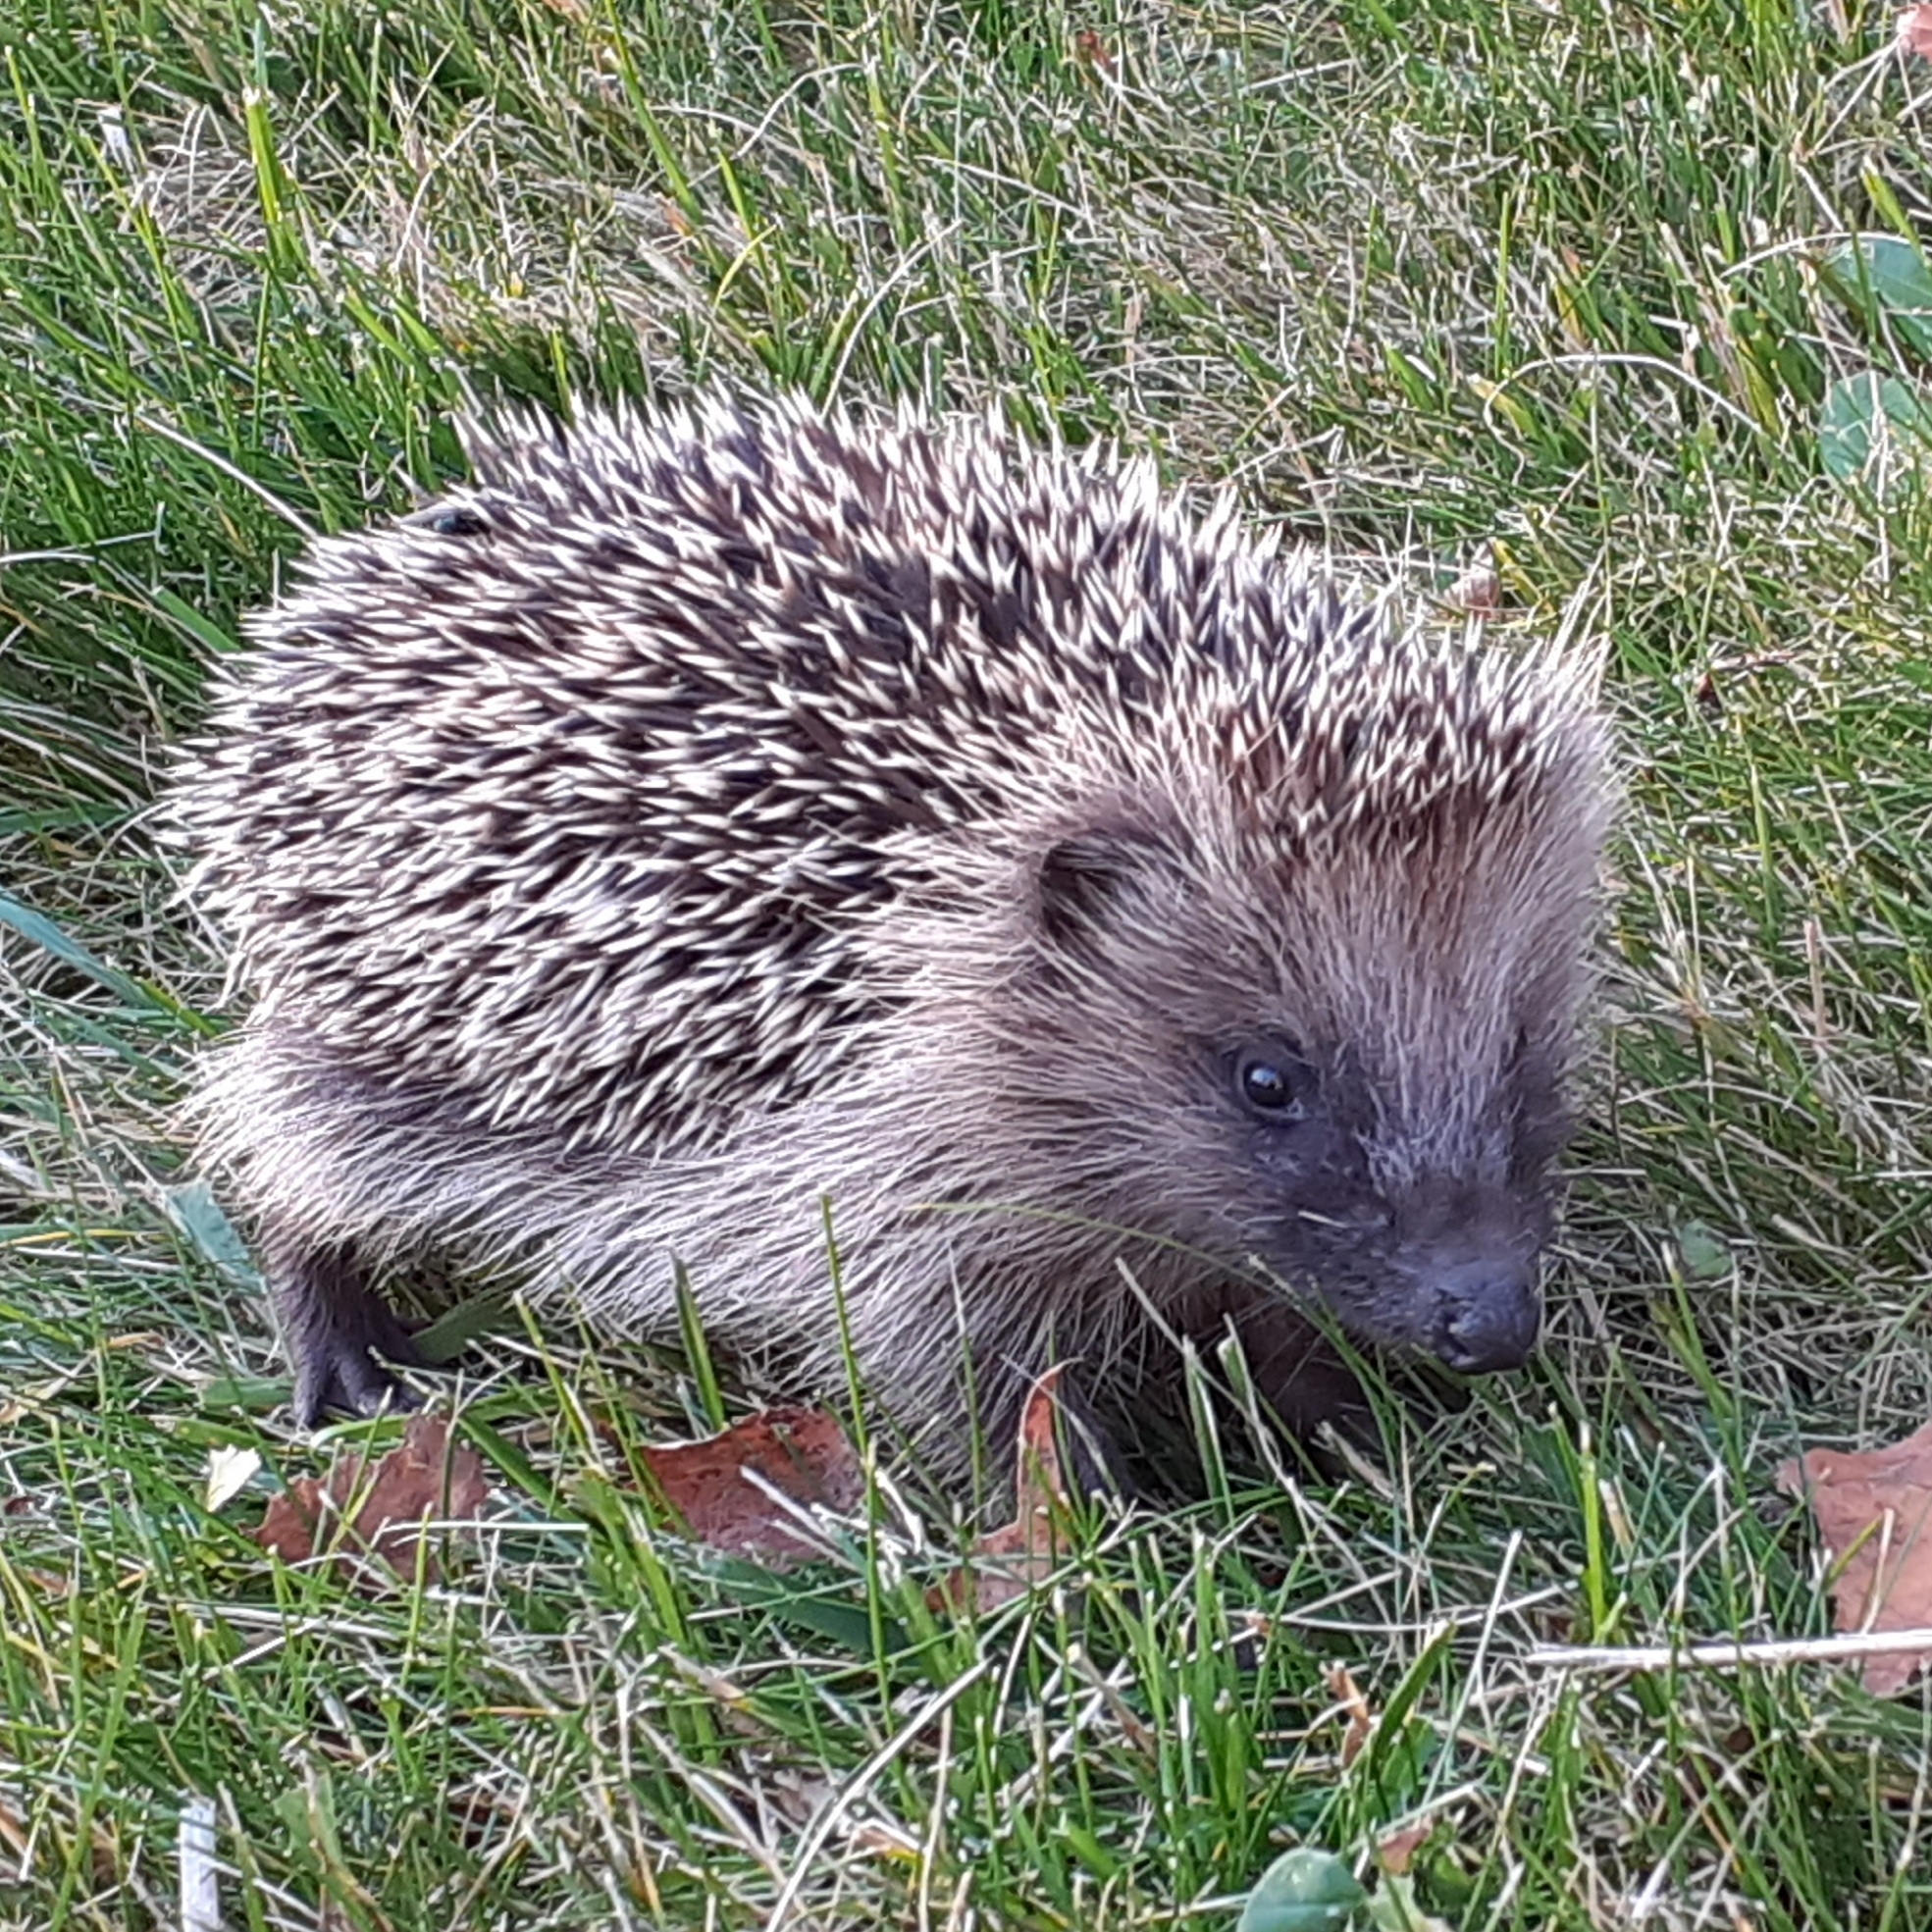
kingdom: Animalia
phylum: Chordata
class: Mammalia
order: Erinaceomorpha
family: Erinaceidae
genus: Erinaceus
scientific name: Erinaceus roumanicus
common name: Northern white-breasted hedgehog
